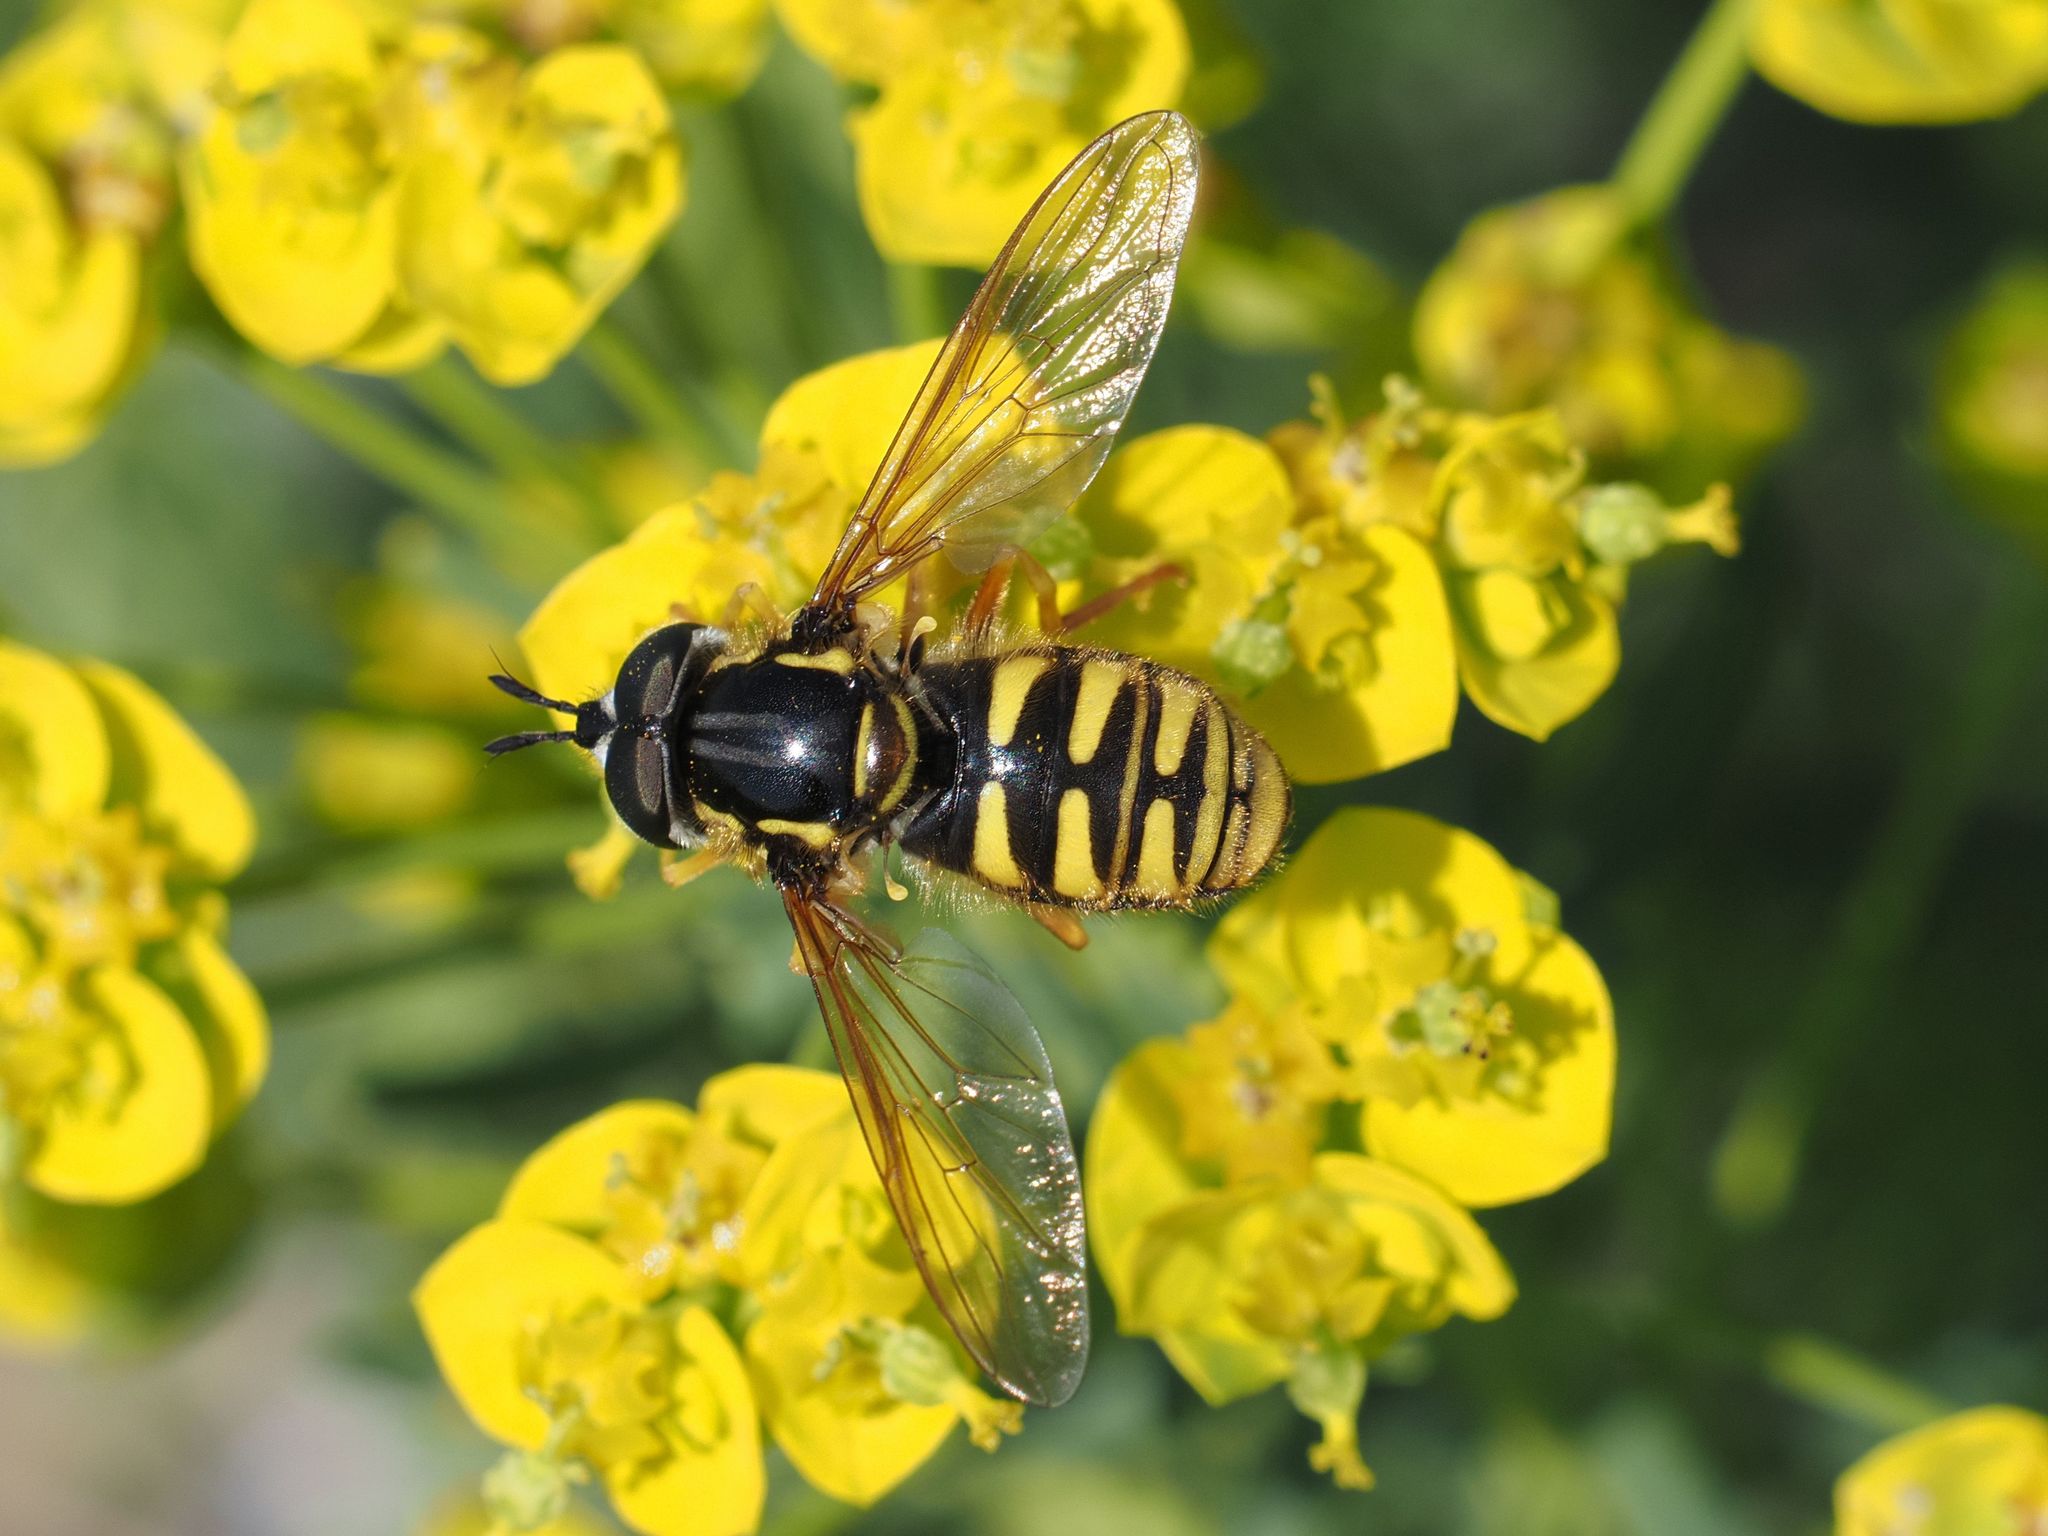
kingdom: Animalia
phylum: Arthropoda
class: Insecta
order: Diptera
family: Syrphidae
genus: Chrysotoxum
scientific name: Chrysotoxum cautum
